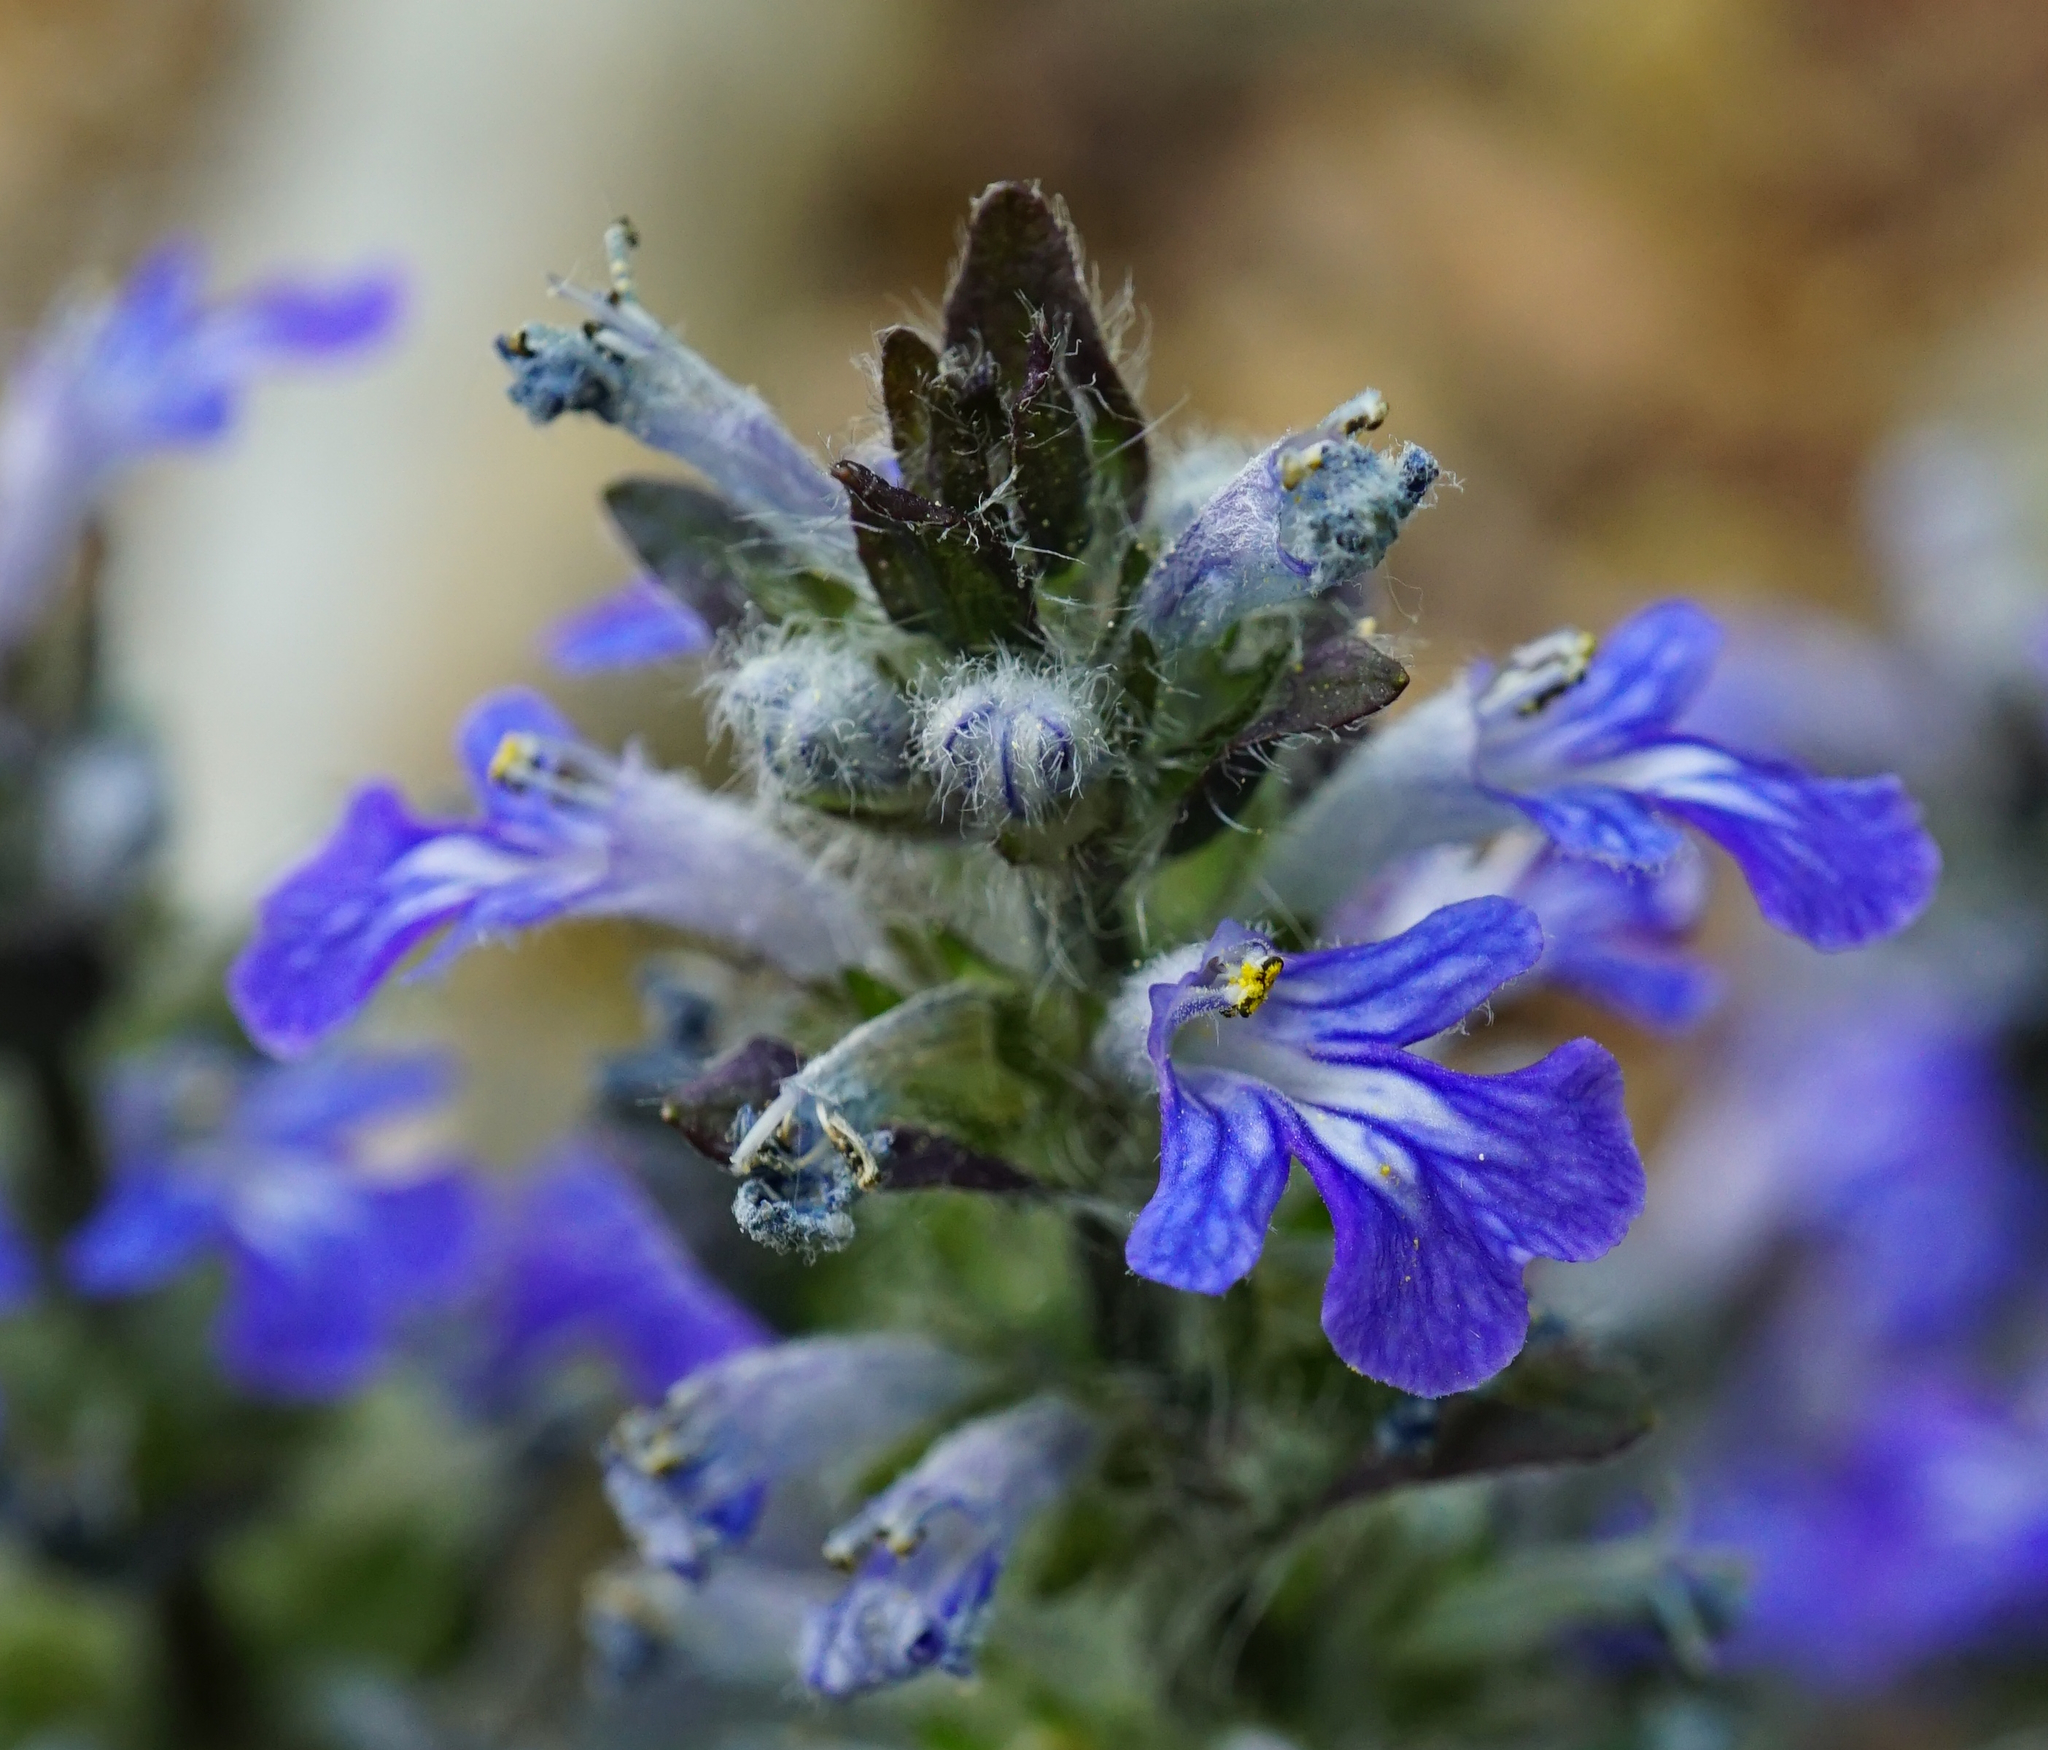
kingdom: Plantae
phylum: Tracheophyta
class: Magnoliopsida
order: Lamiales
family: Lamiaceae
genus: Ajuga
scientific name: Ajuga reptans
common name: Bugle
